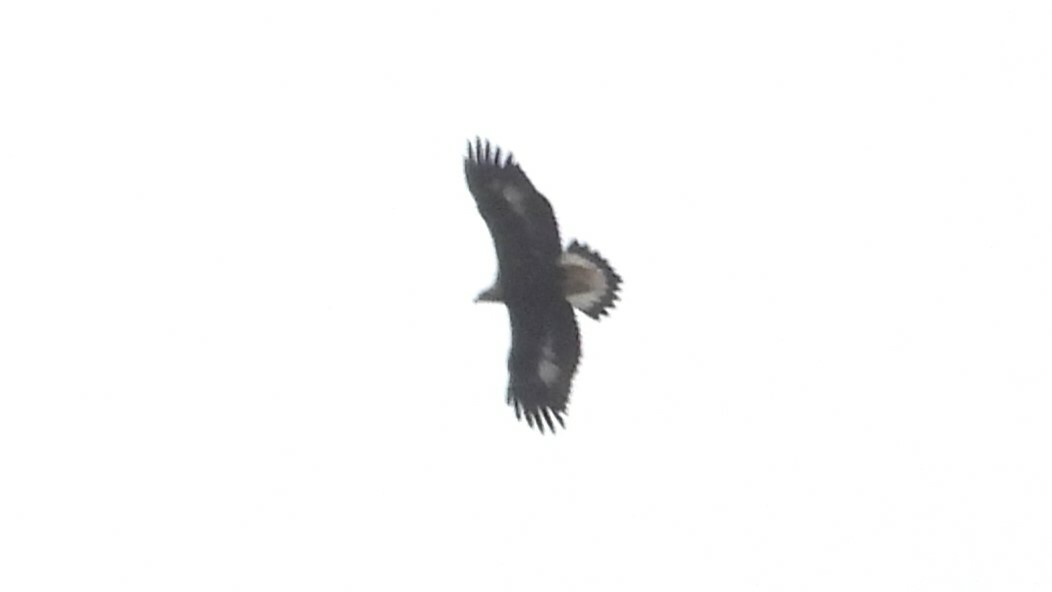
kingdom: Animalia
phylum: Chordata
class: Aves
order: Accipitriformes
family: Accipitridae
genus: Aquila
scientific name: Aquila chrysaetos
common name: Golden eagle
